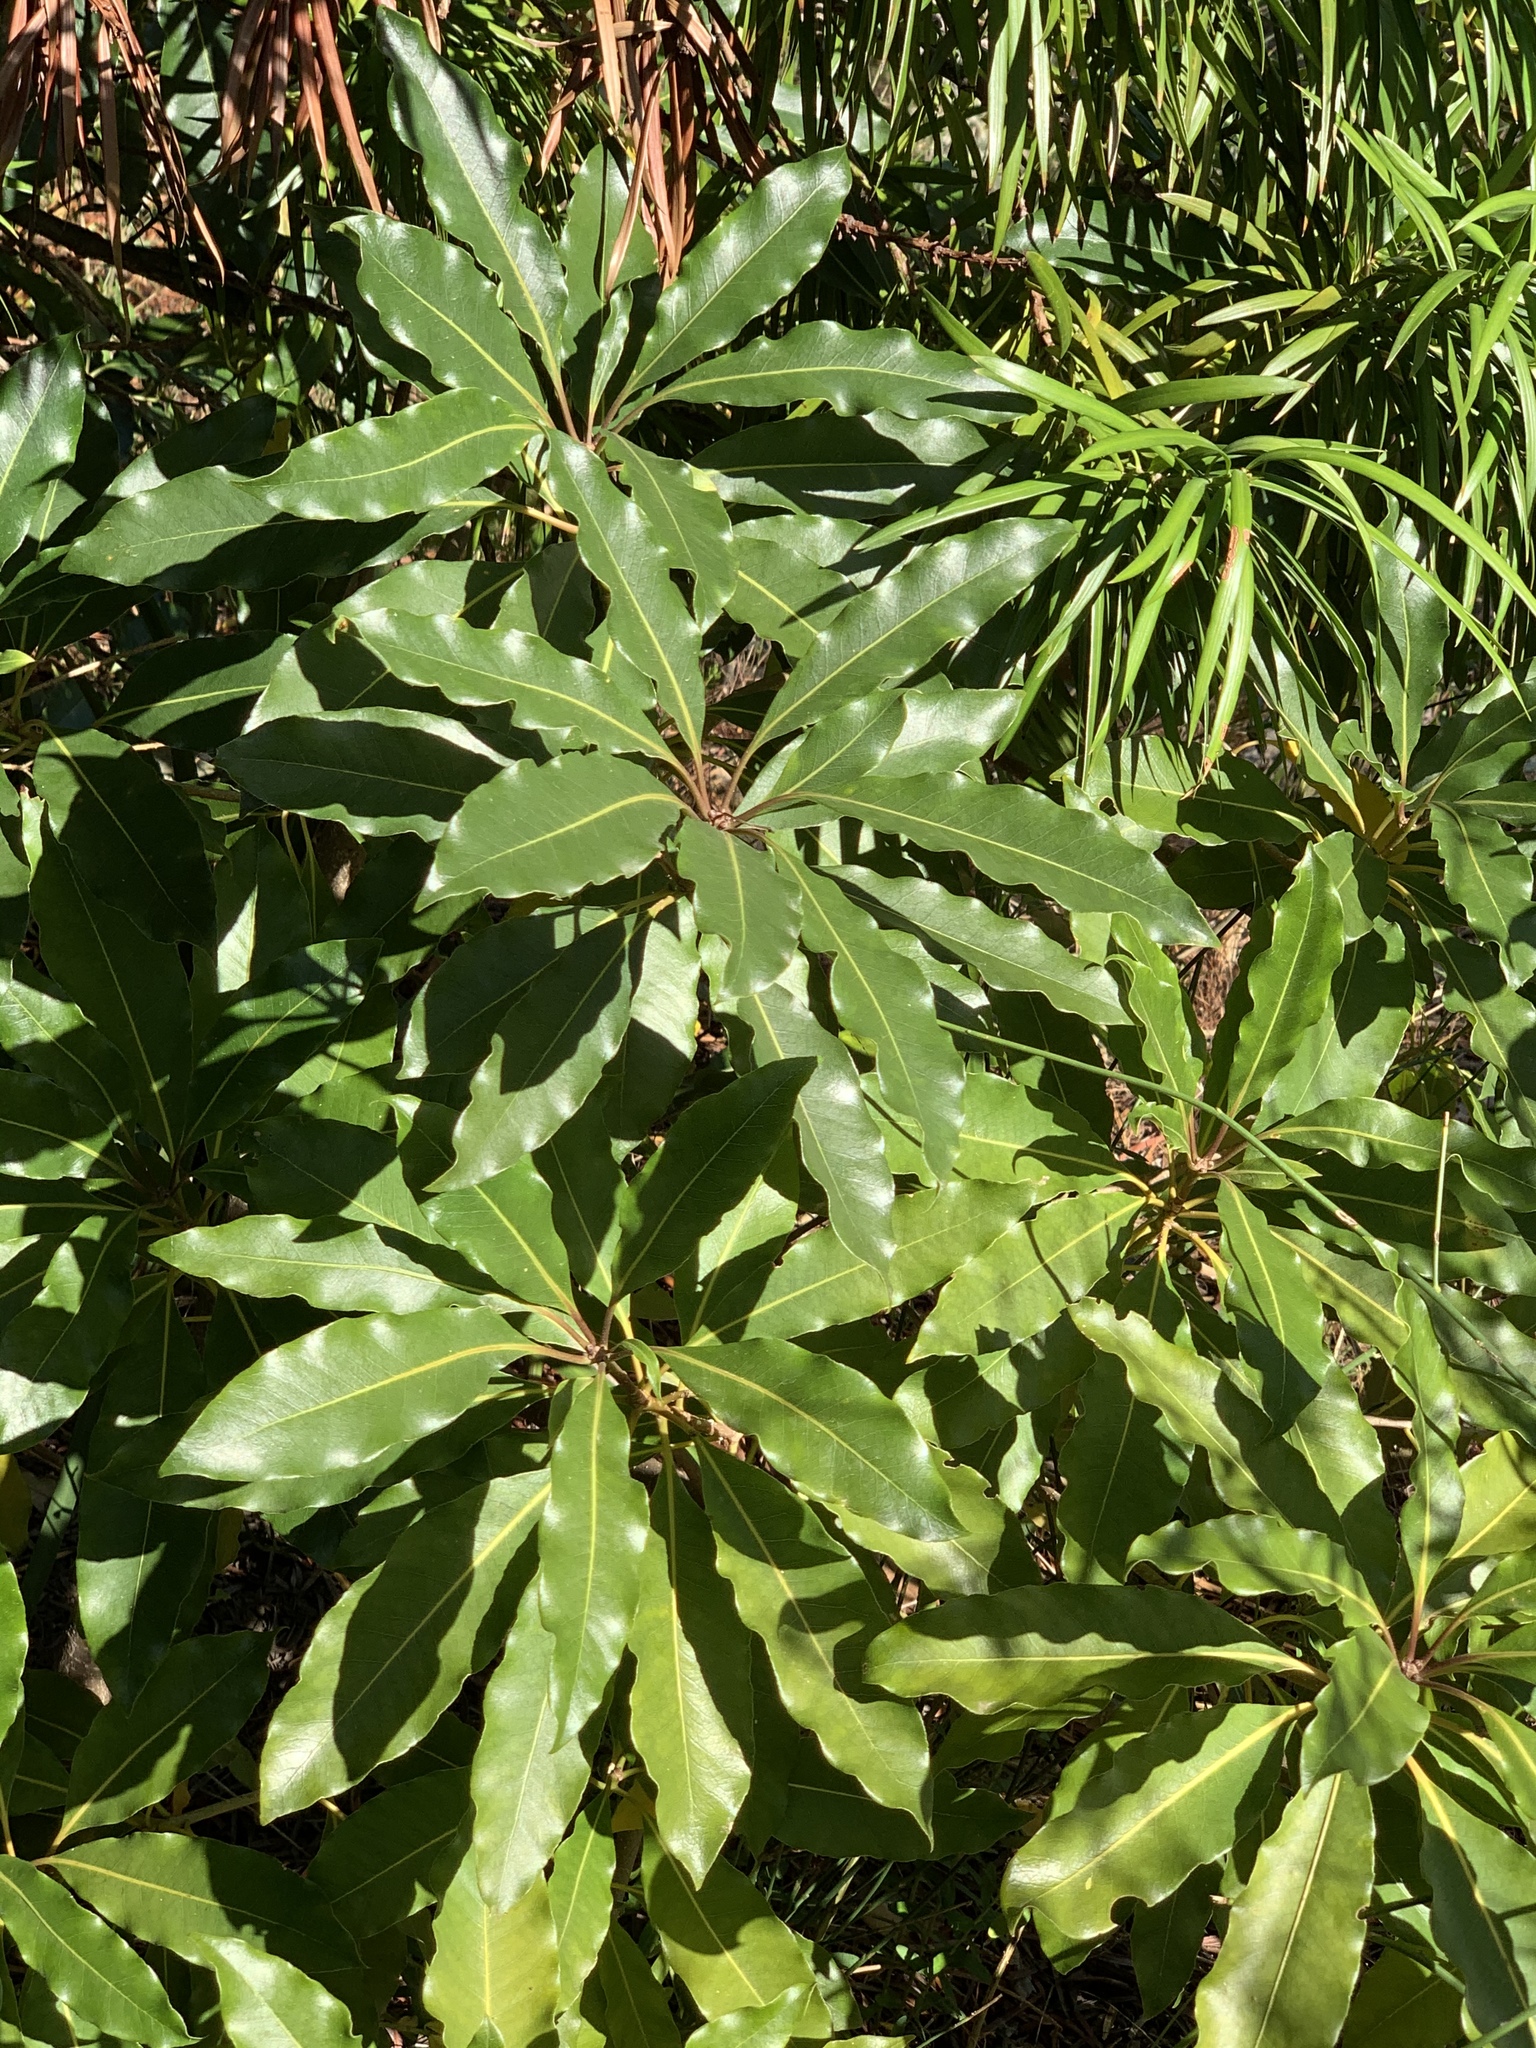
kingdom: Plantae
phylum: Tracheophyta
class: Magnoliopsida
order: Apiales
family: Pittosporaceae
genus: Pittosporum
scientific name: Pittosporum undulatum
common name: Australian cheesewood
